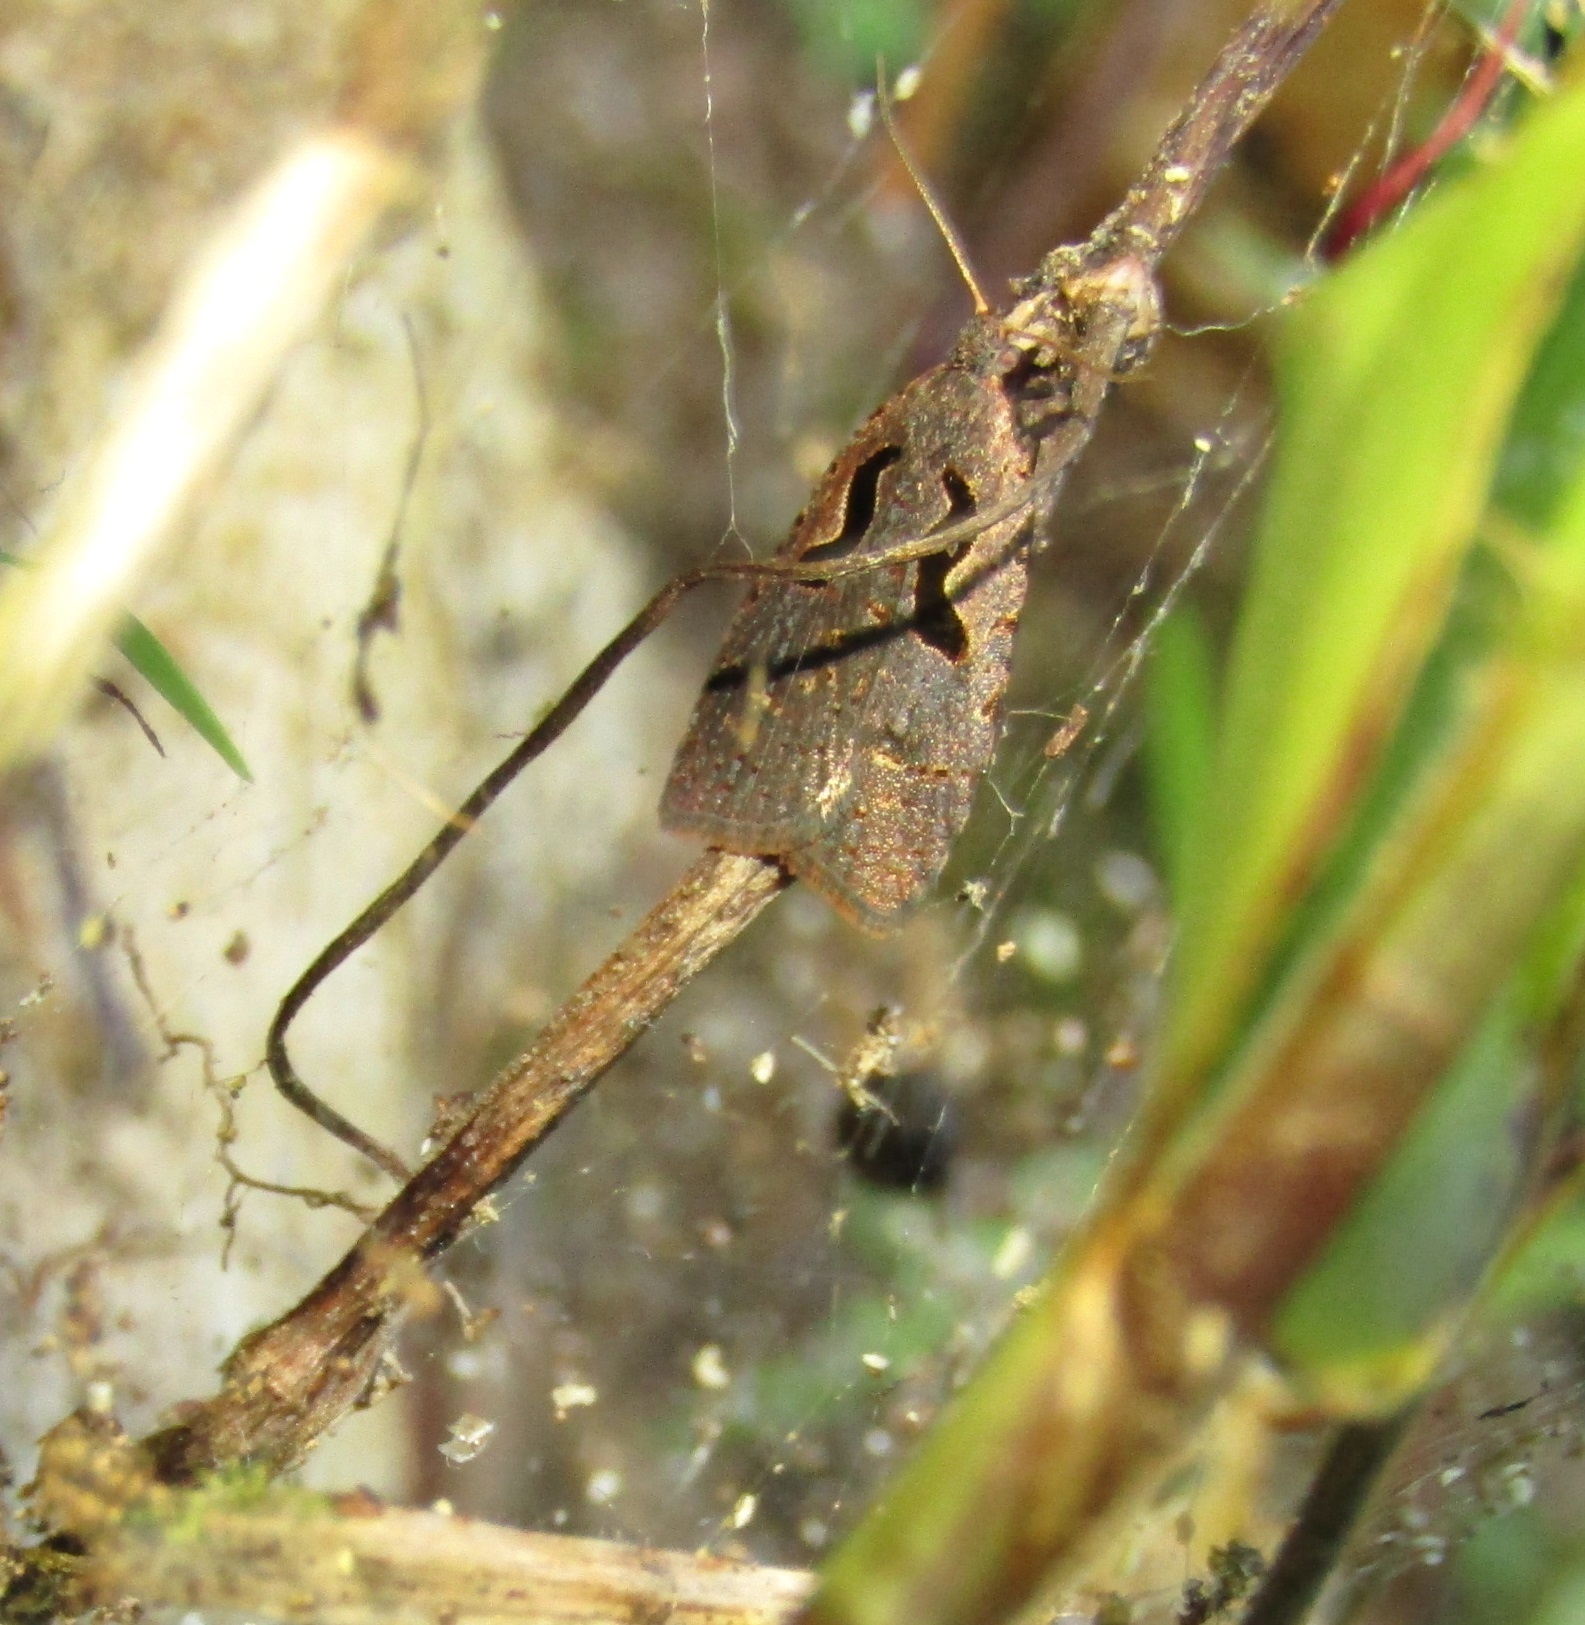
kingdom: Animalia
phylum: Arthropoda
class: Insecta
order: Lepidoptera
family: Tortricidae
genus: Cnephasia
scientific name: Cnephasia jactatana
